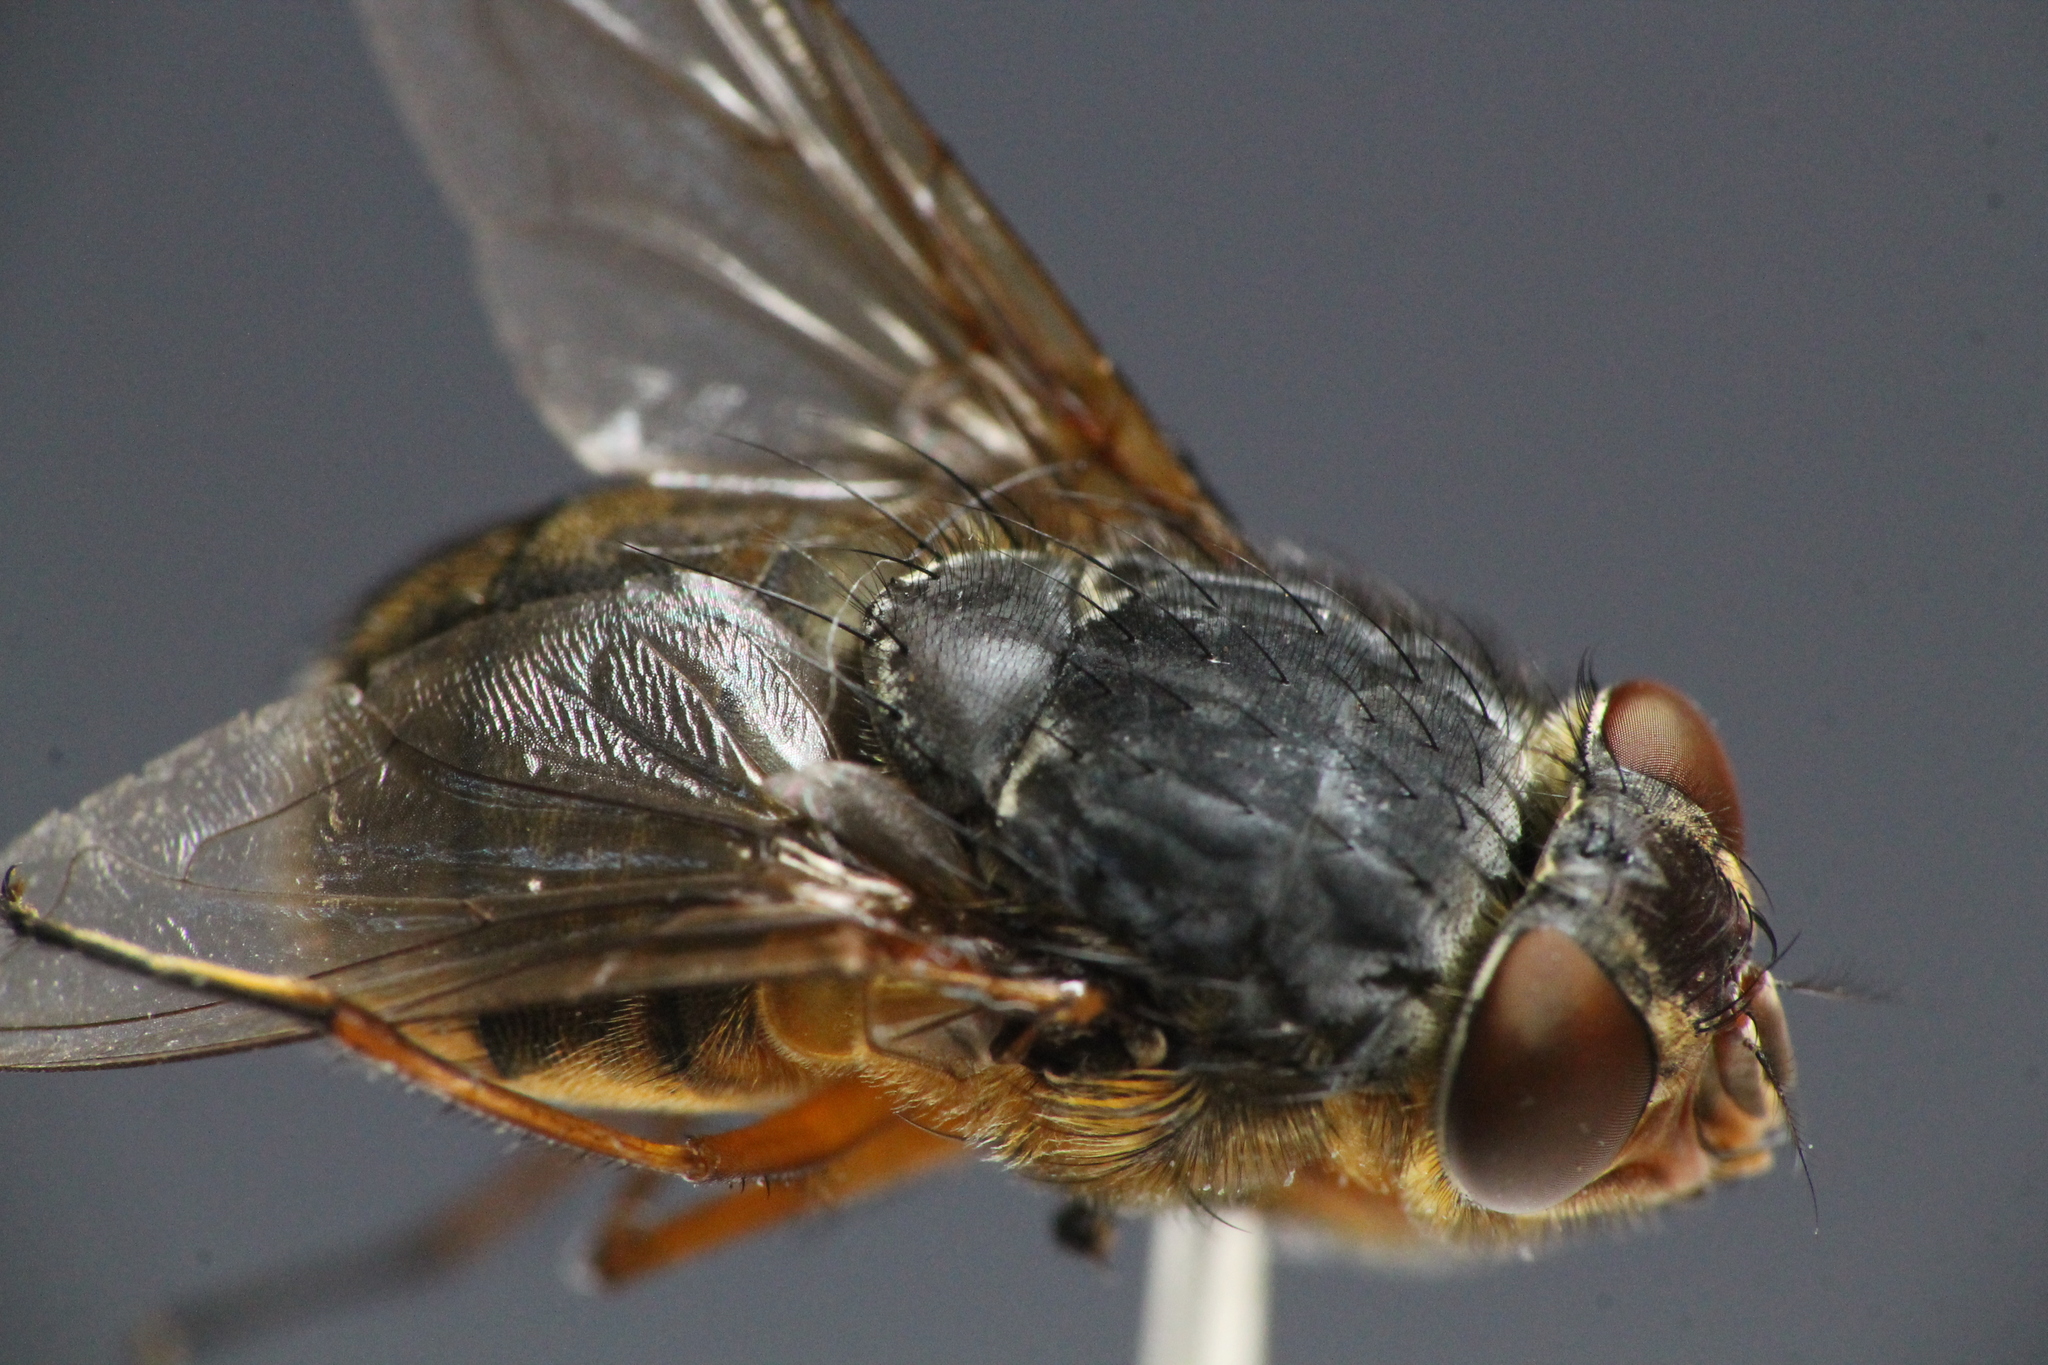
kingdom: Animalia
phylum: Arthropoda
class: Insecta
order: Diptera
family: Calliphoridae
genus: Calliphora
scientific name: Calliphora stygia
